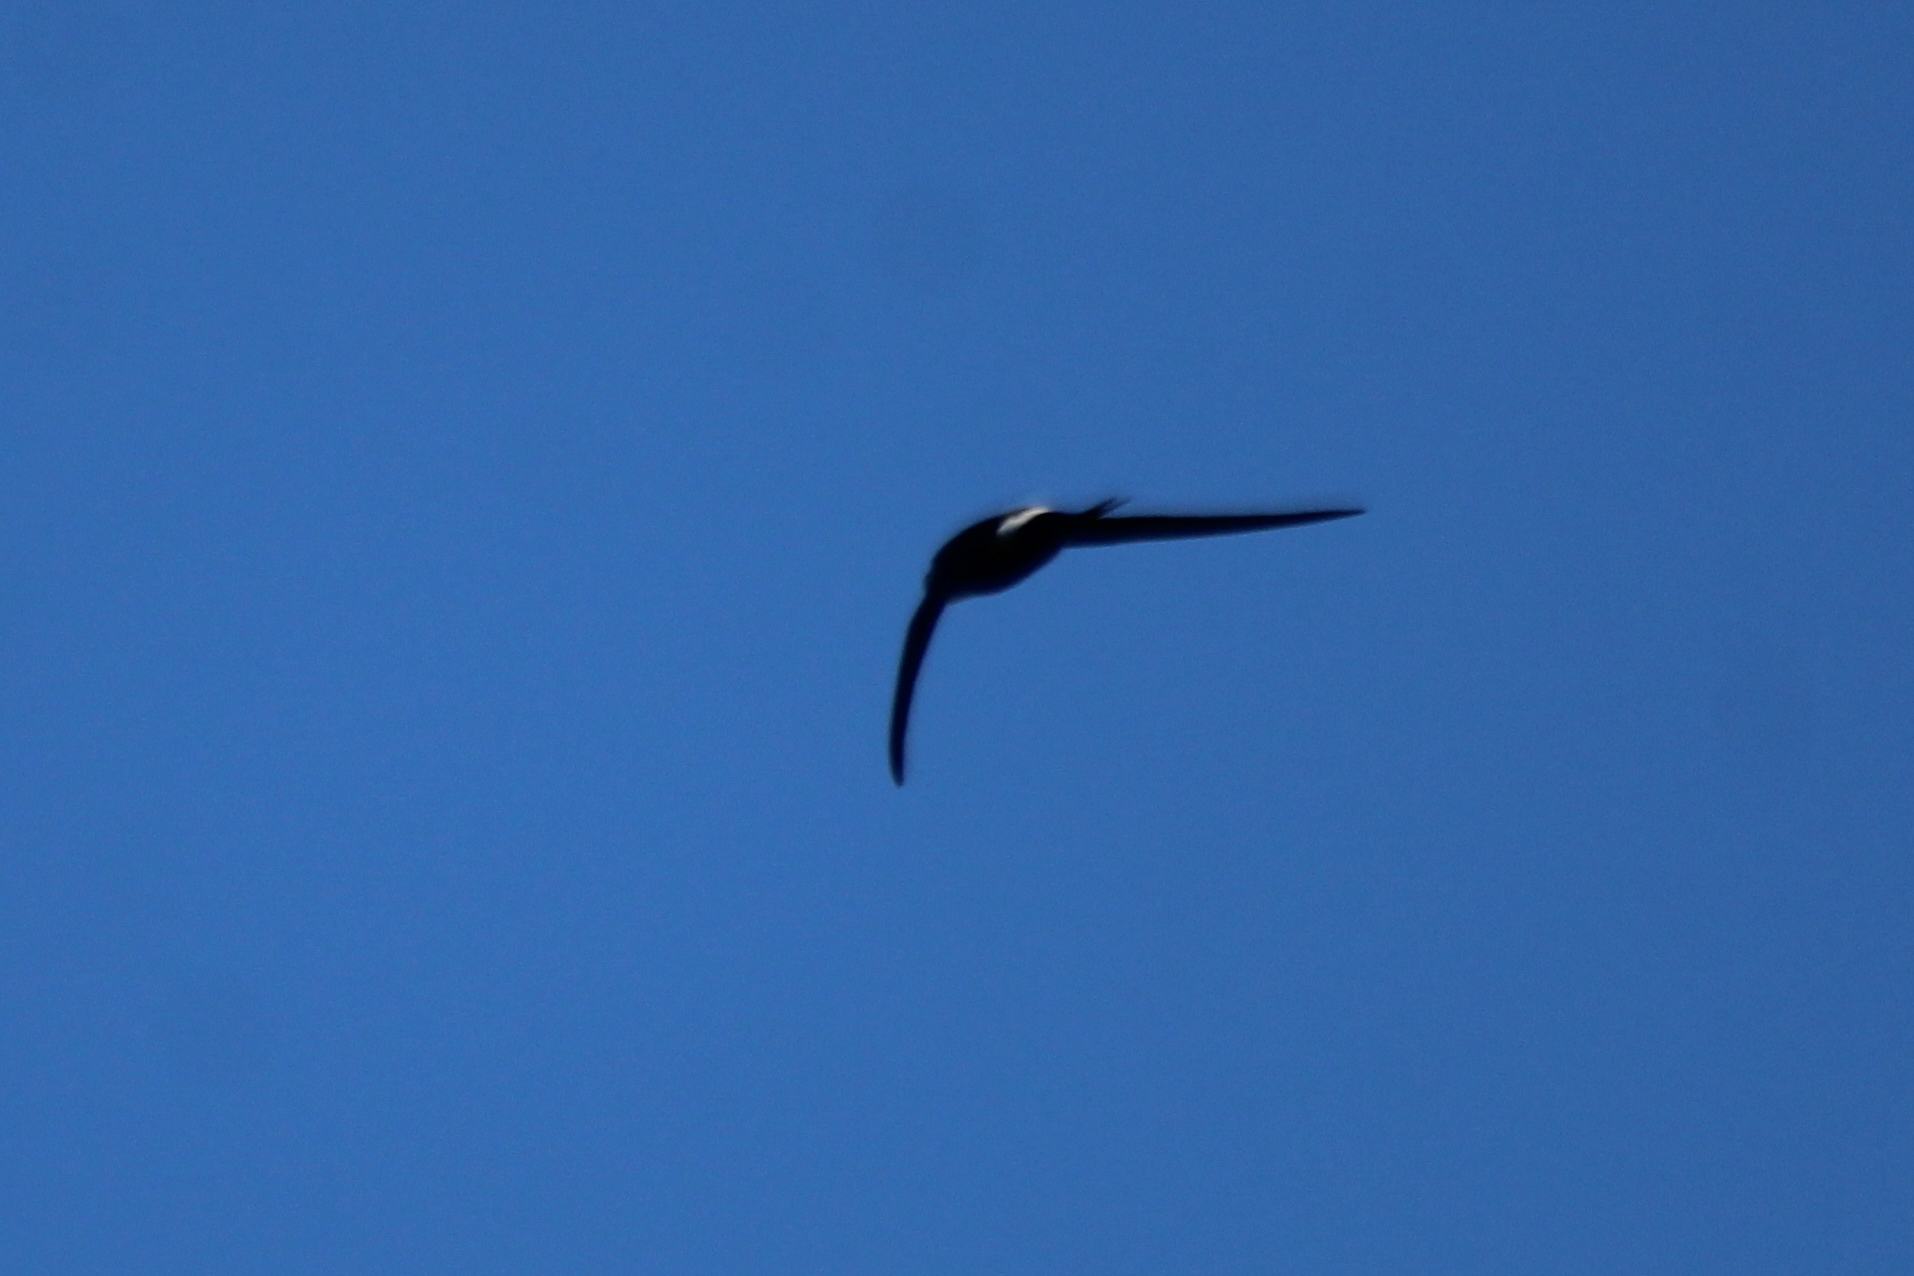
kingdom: Animalia
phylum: Chordata
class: Aves
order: Apodiformes
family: Apodidae
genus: Apus
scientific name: Apus pacificus
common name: Pacific swift
